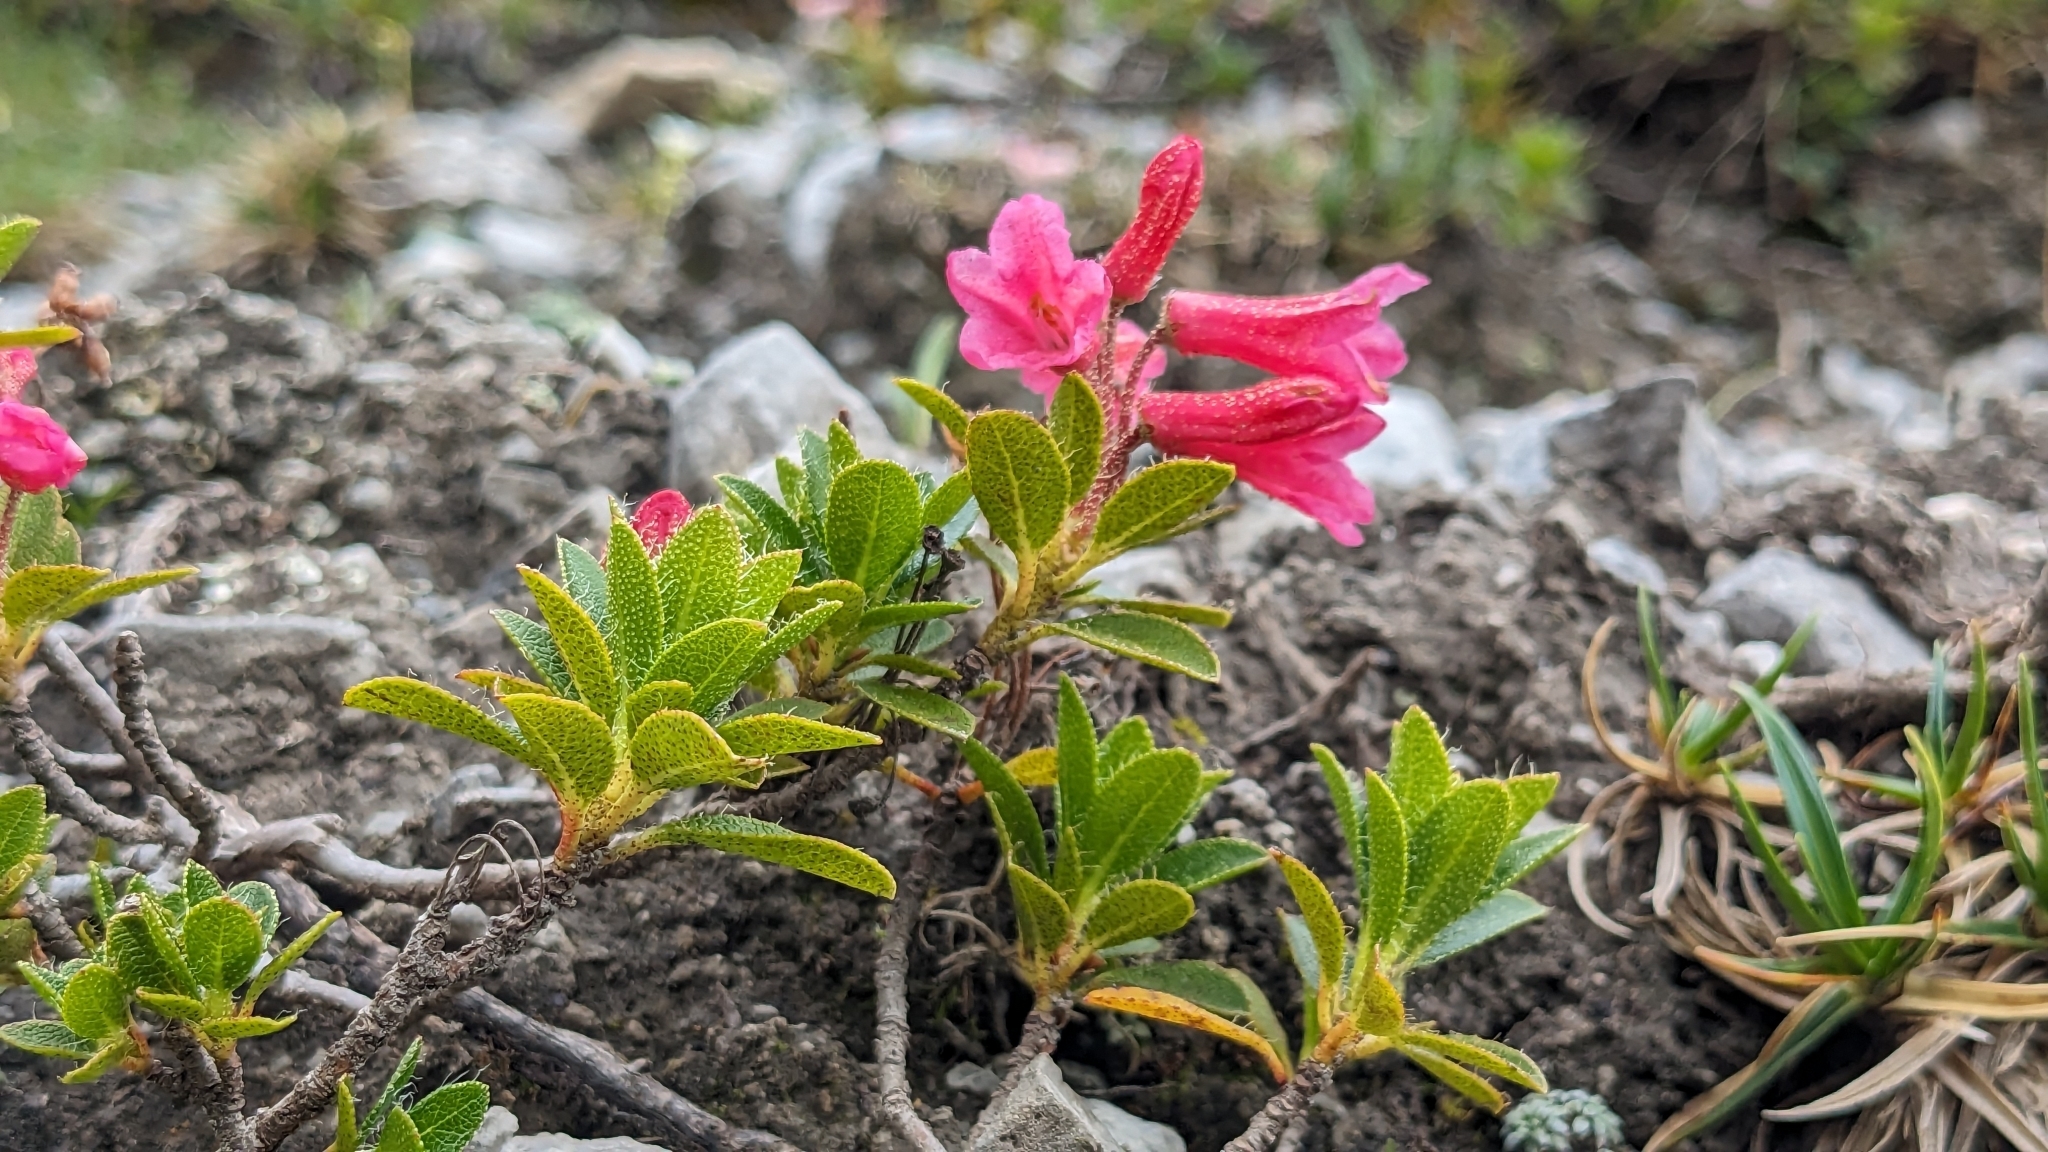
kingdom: Plantae
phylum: Tracheophyta
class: Magnoliopsida
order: Ericales
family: Ericaceae
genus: Rhododendron
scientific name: Rhododendron hirsutum
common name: Hairy alpenrose
